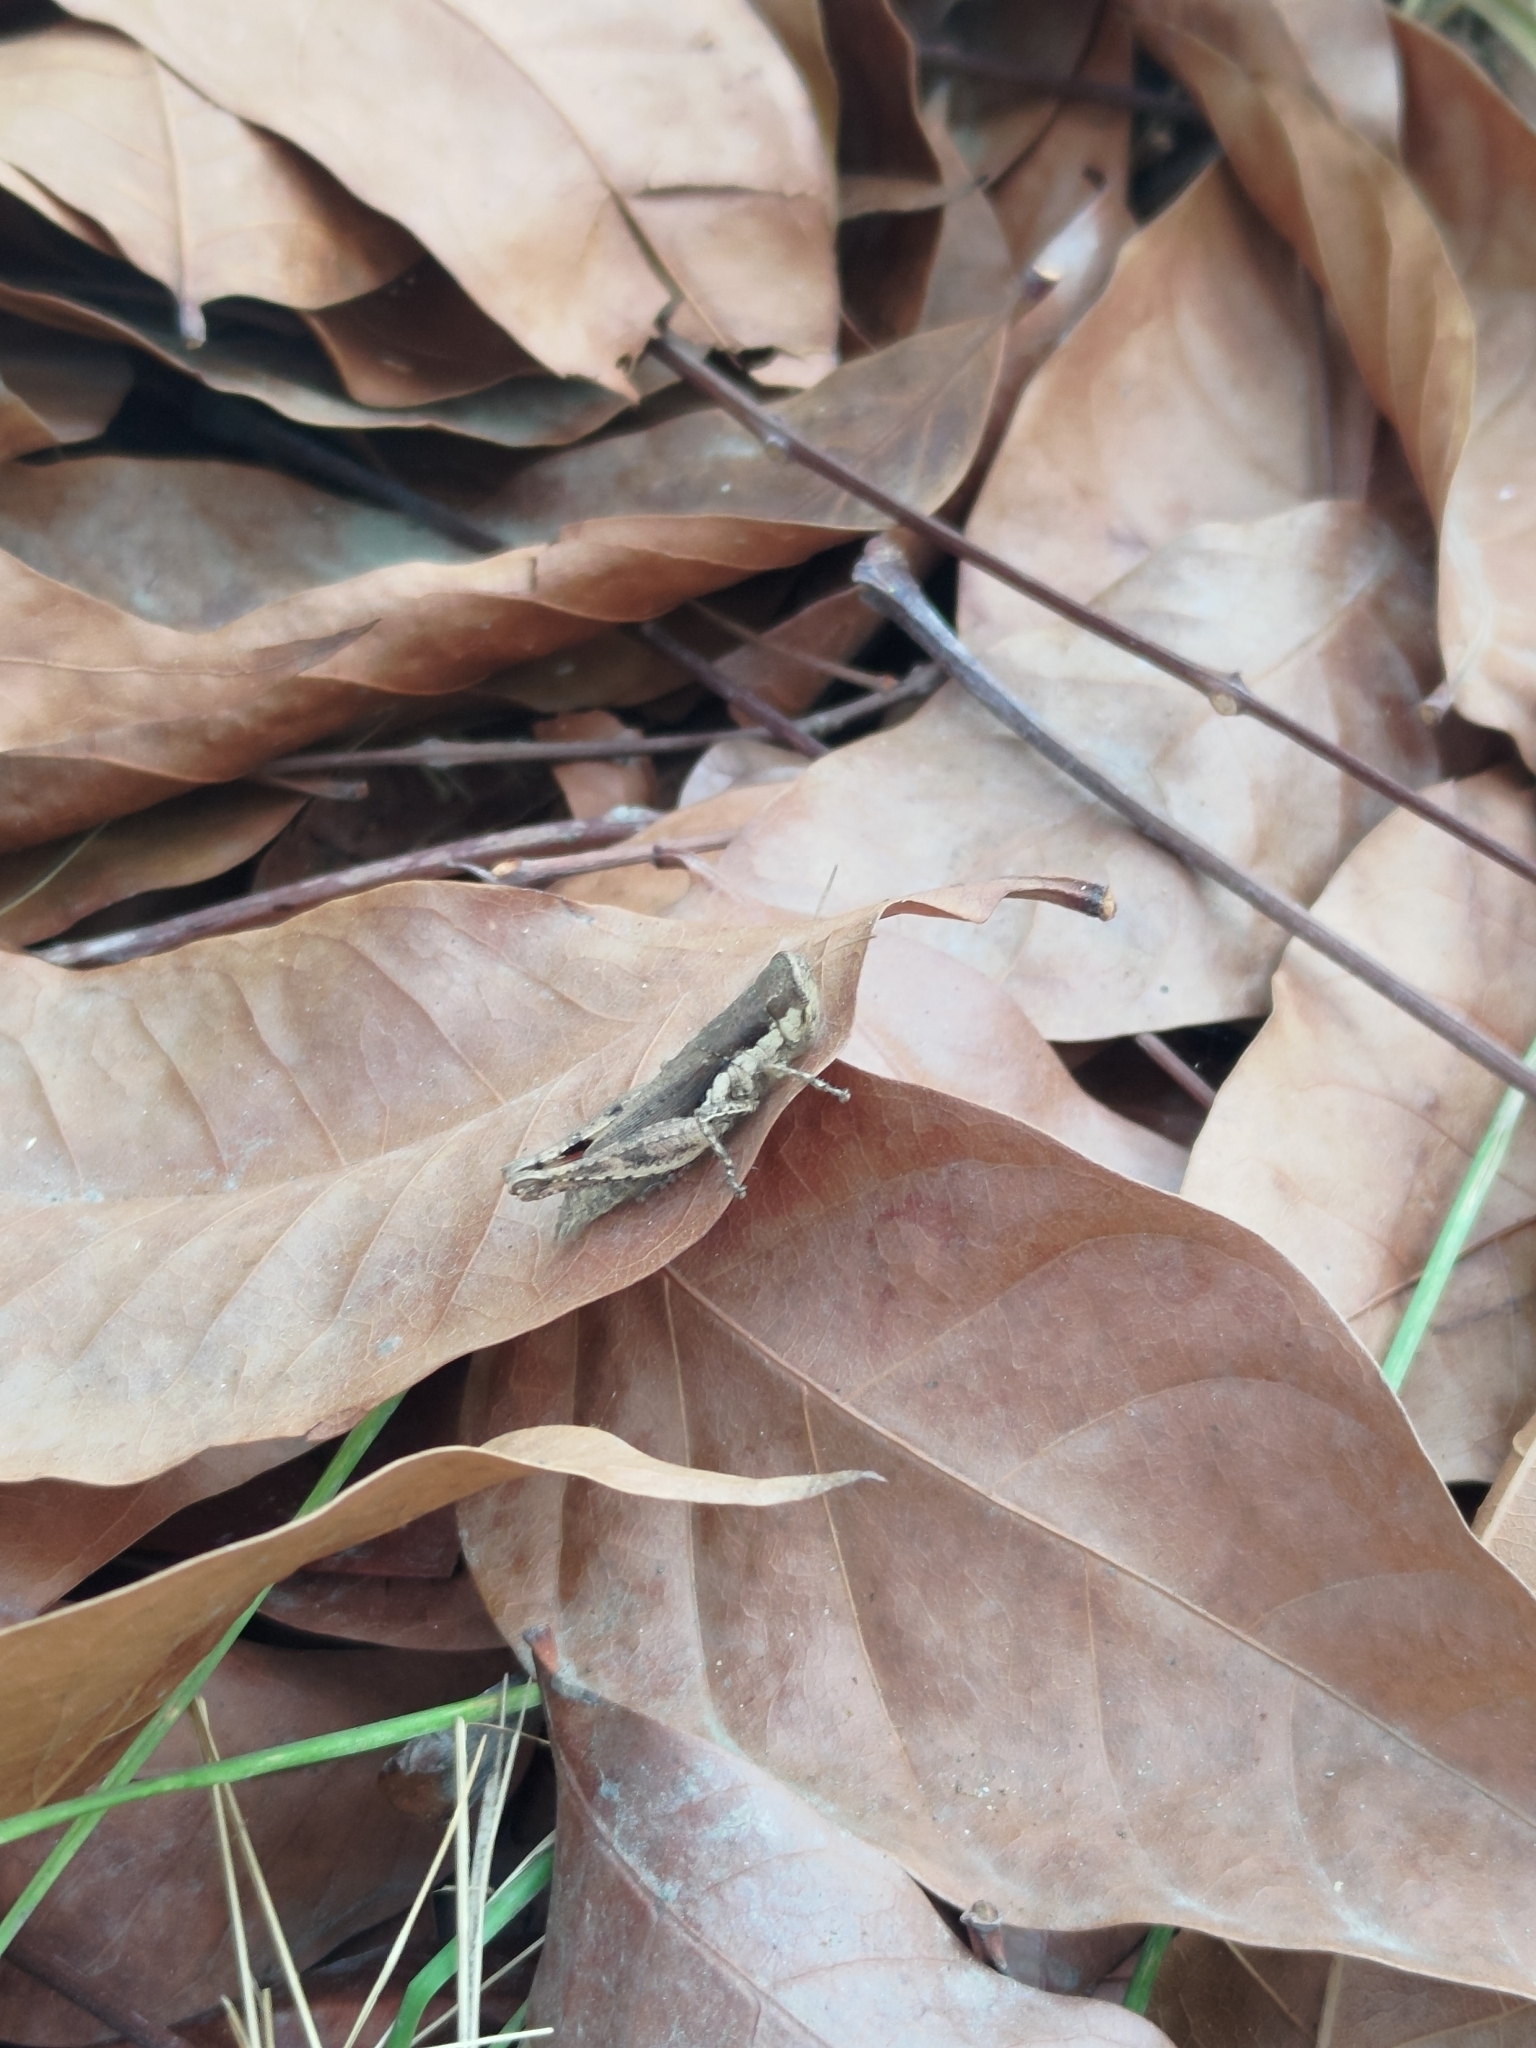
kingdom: Animalia
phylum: Arthropoda
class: Insecta
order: Orthoptera
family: Acrididae
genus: Pseudoxya
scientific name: Pseudoxya diminuta
